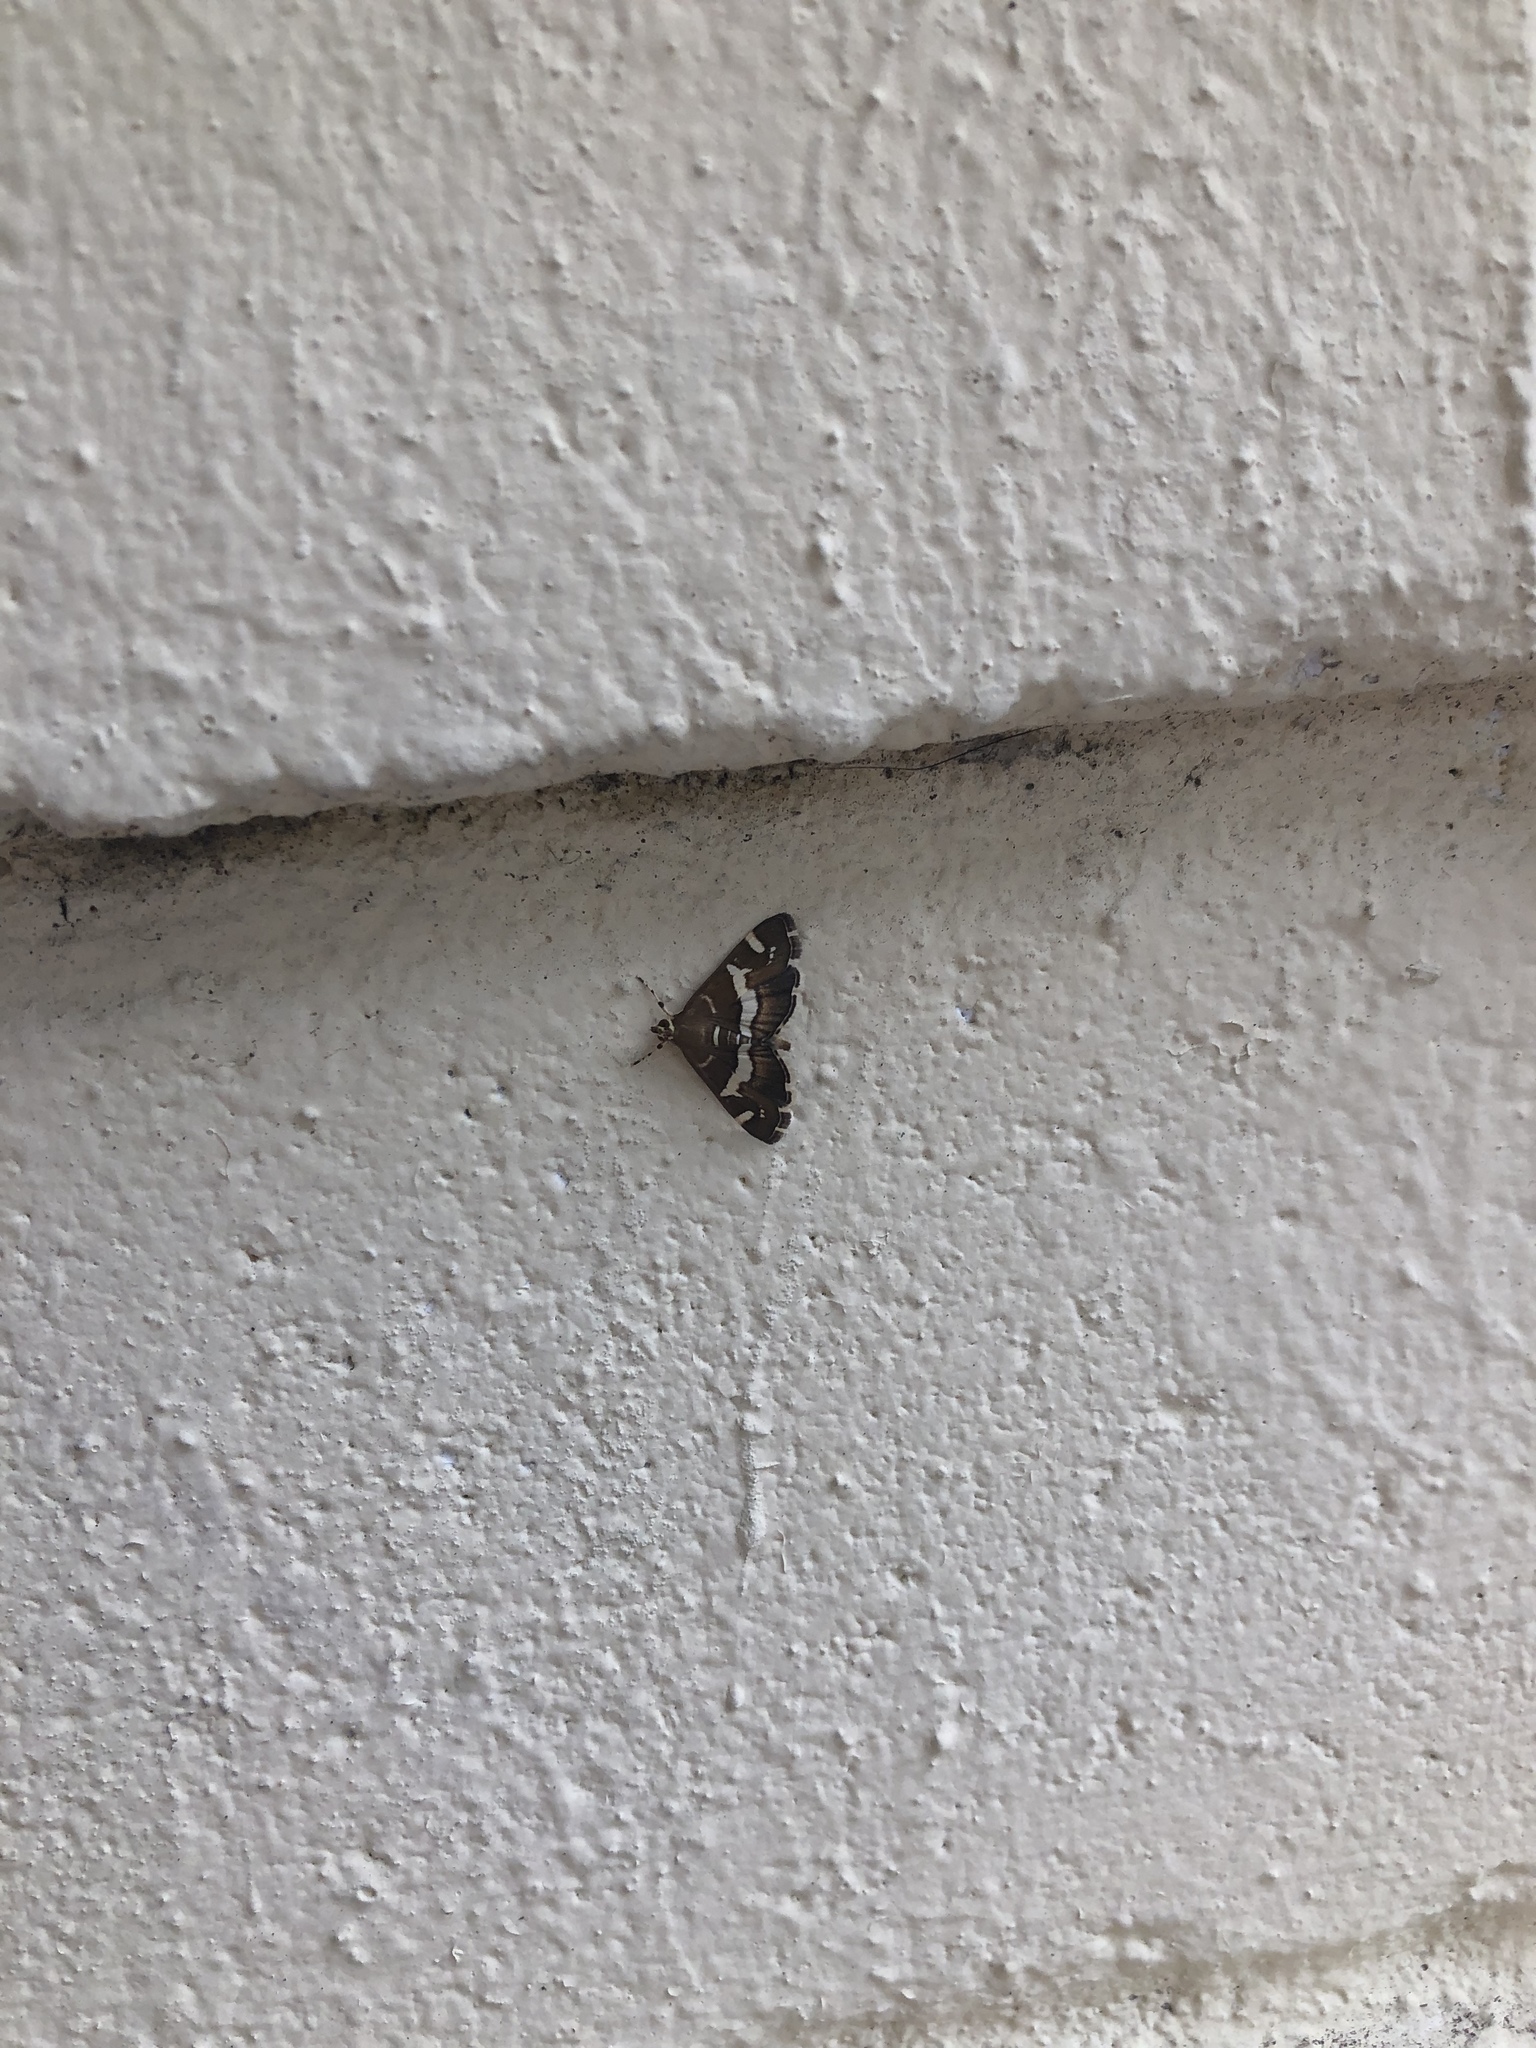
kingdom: Animalia
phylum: Arthropoda
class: Insecta
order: Lepidoptera
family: Crambidae
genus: Spoladea
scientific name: Spoladea recurvalis
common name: Beet webworm moth
